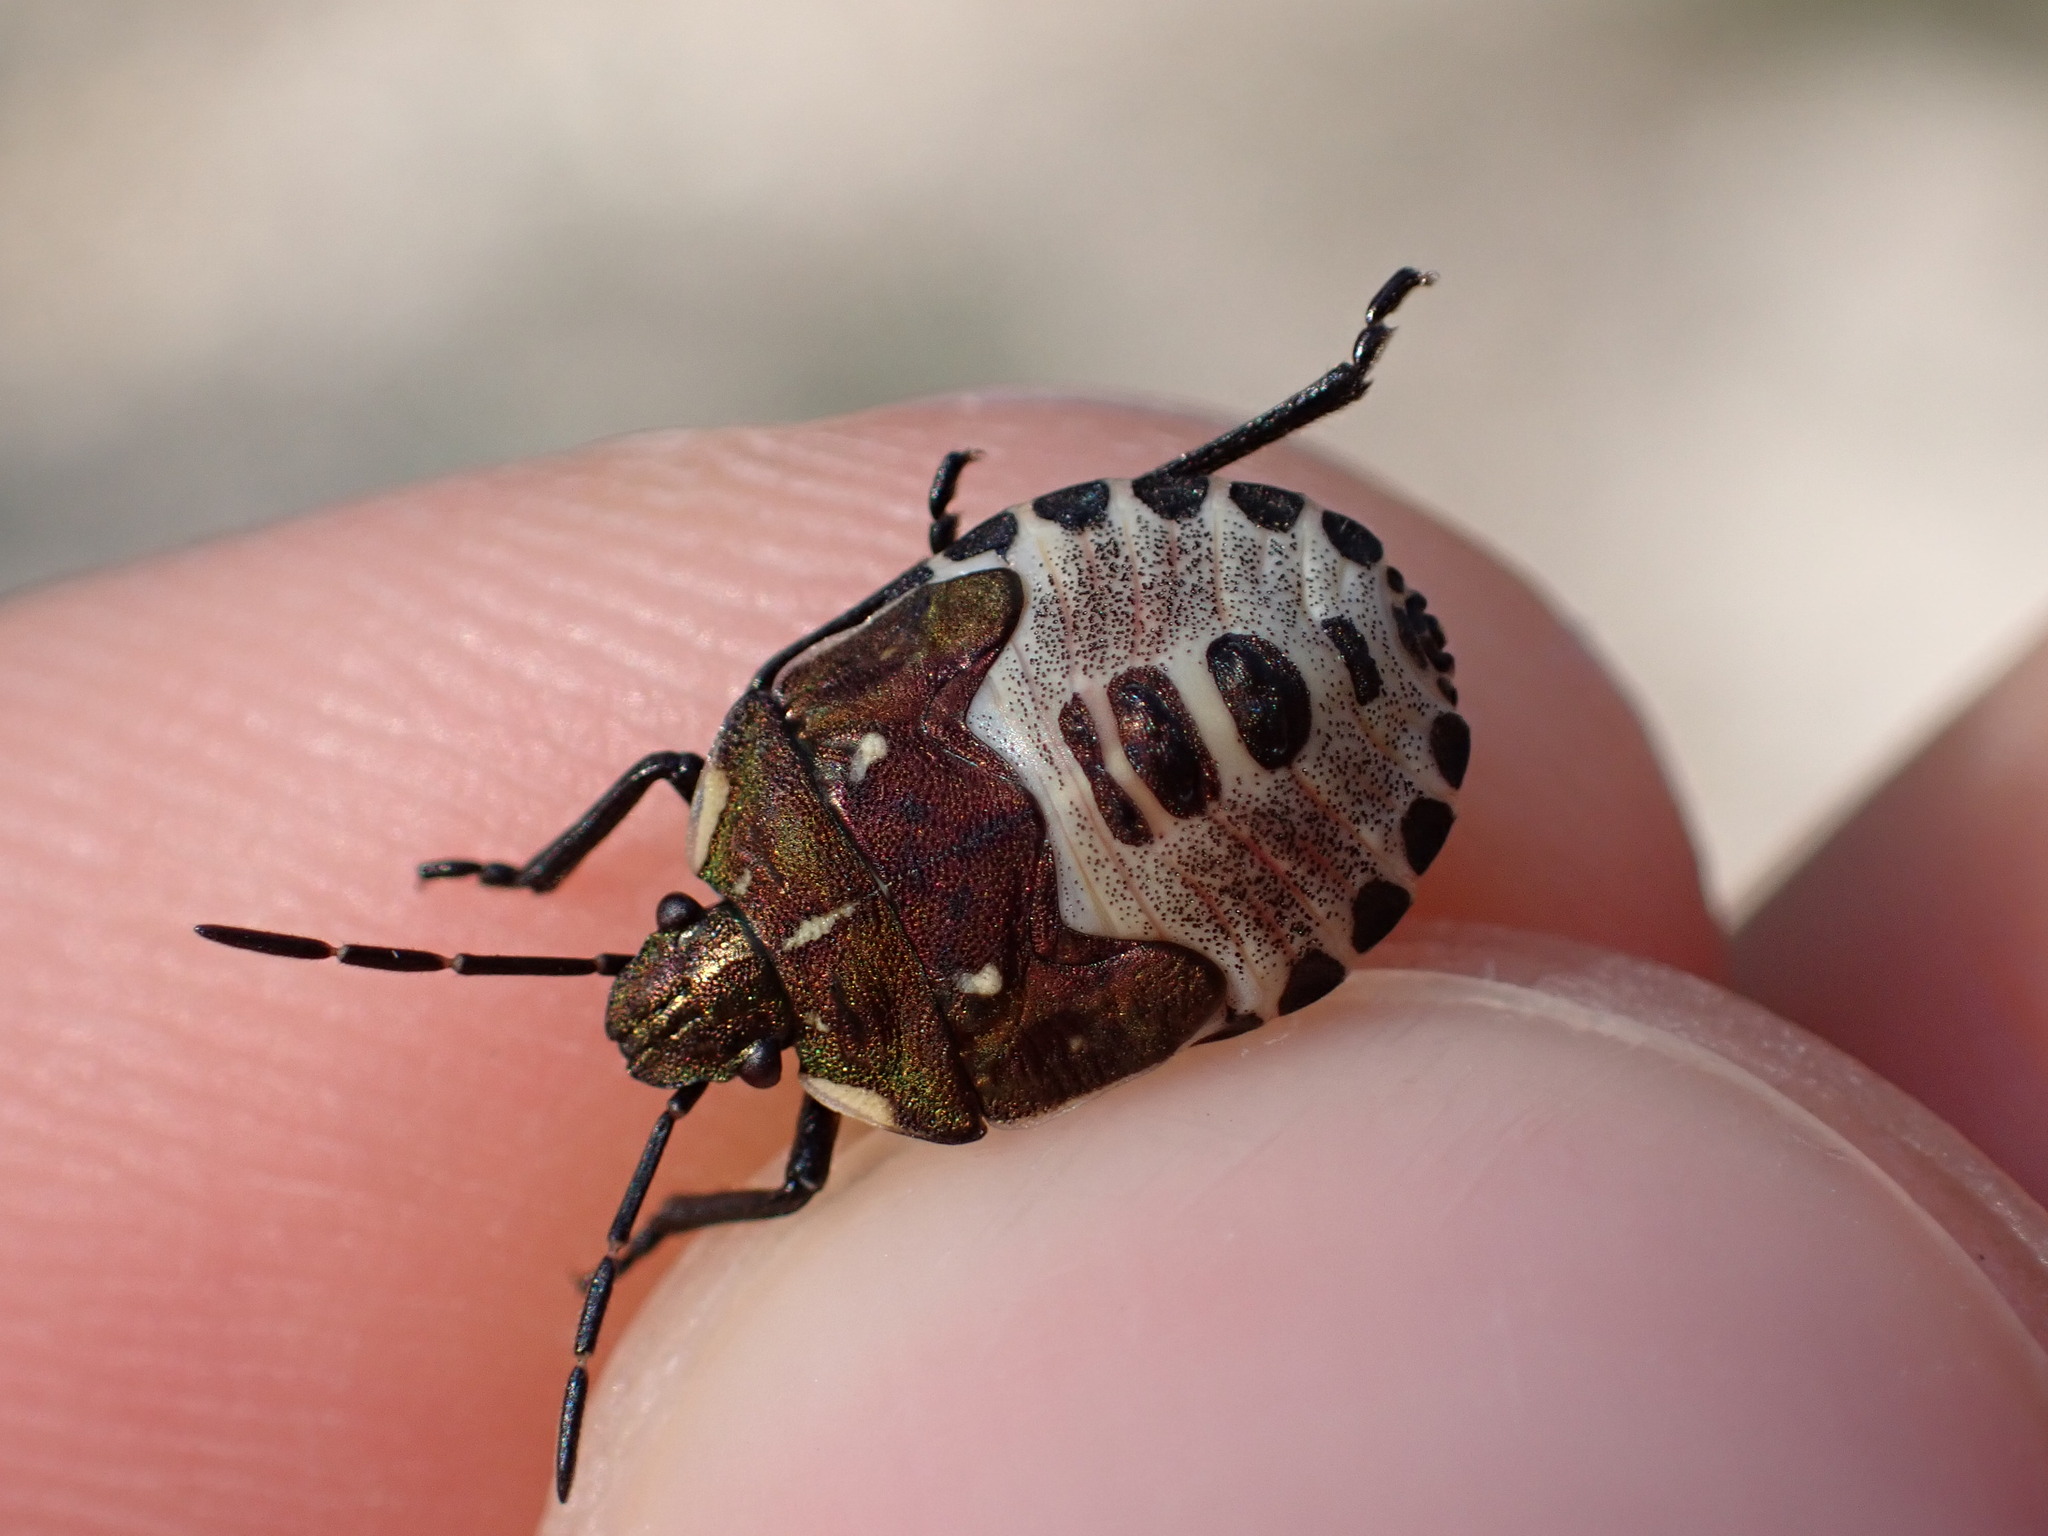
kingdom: Animalia
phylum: Arthropoda
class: Insecta
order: Hemiptera
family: Pentatomidae
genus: Carpocoris
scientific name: Carpocoris purpureipennis
